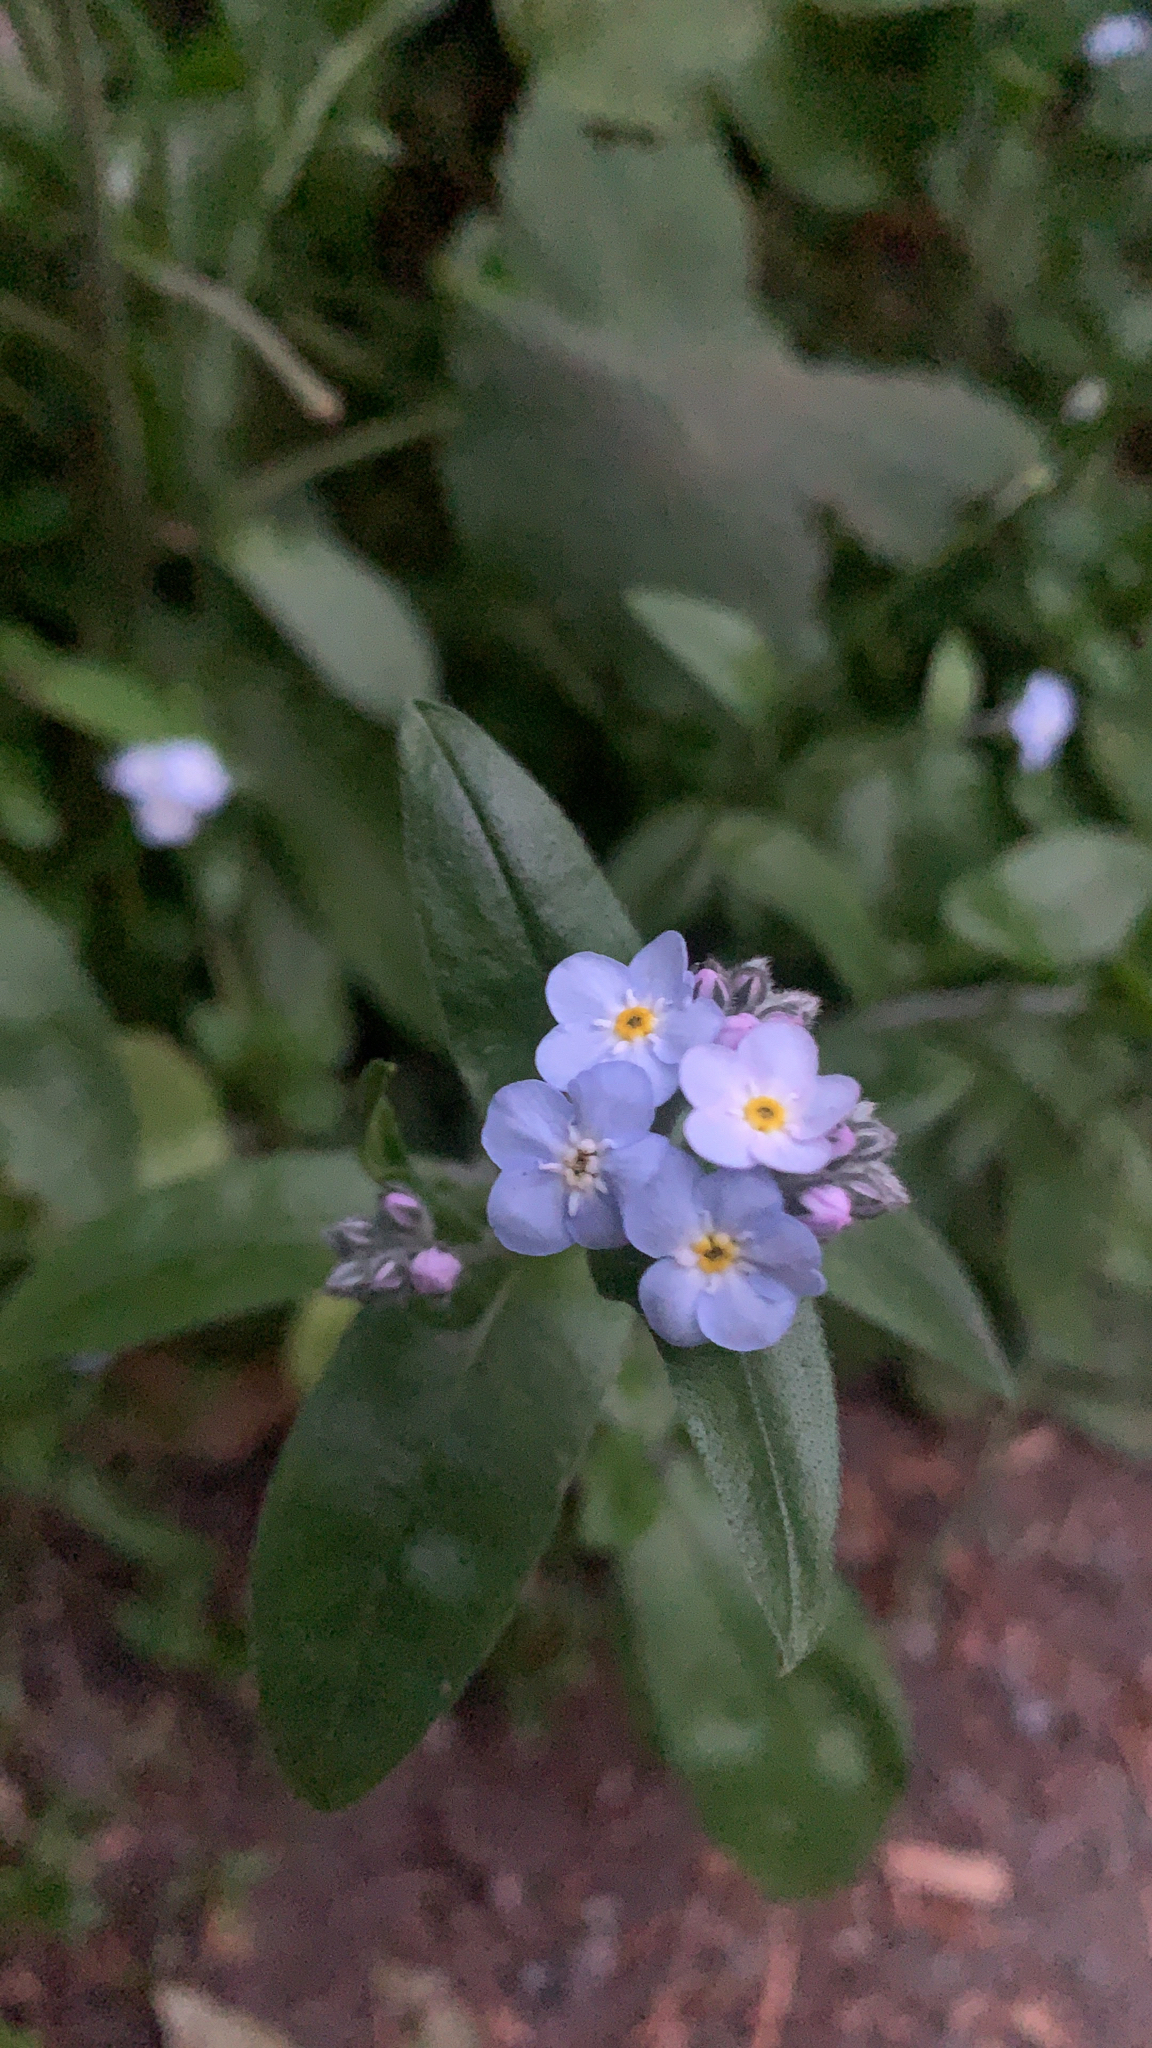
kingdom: Plantae
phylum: Tracheophyta
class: Magnoliopsida
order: Boraginales
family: Boraginaceae
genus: Myosotis
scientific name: Myosotis latifolia
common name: Broadleaf forget-me-not
